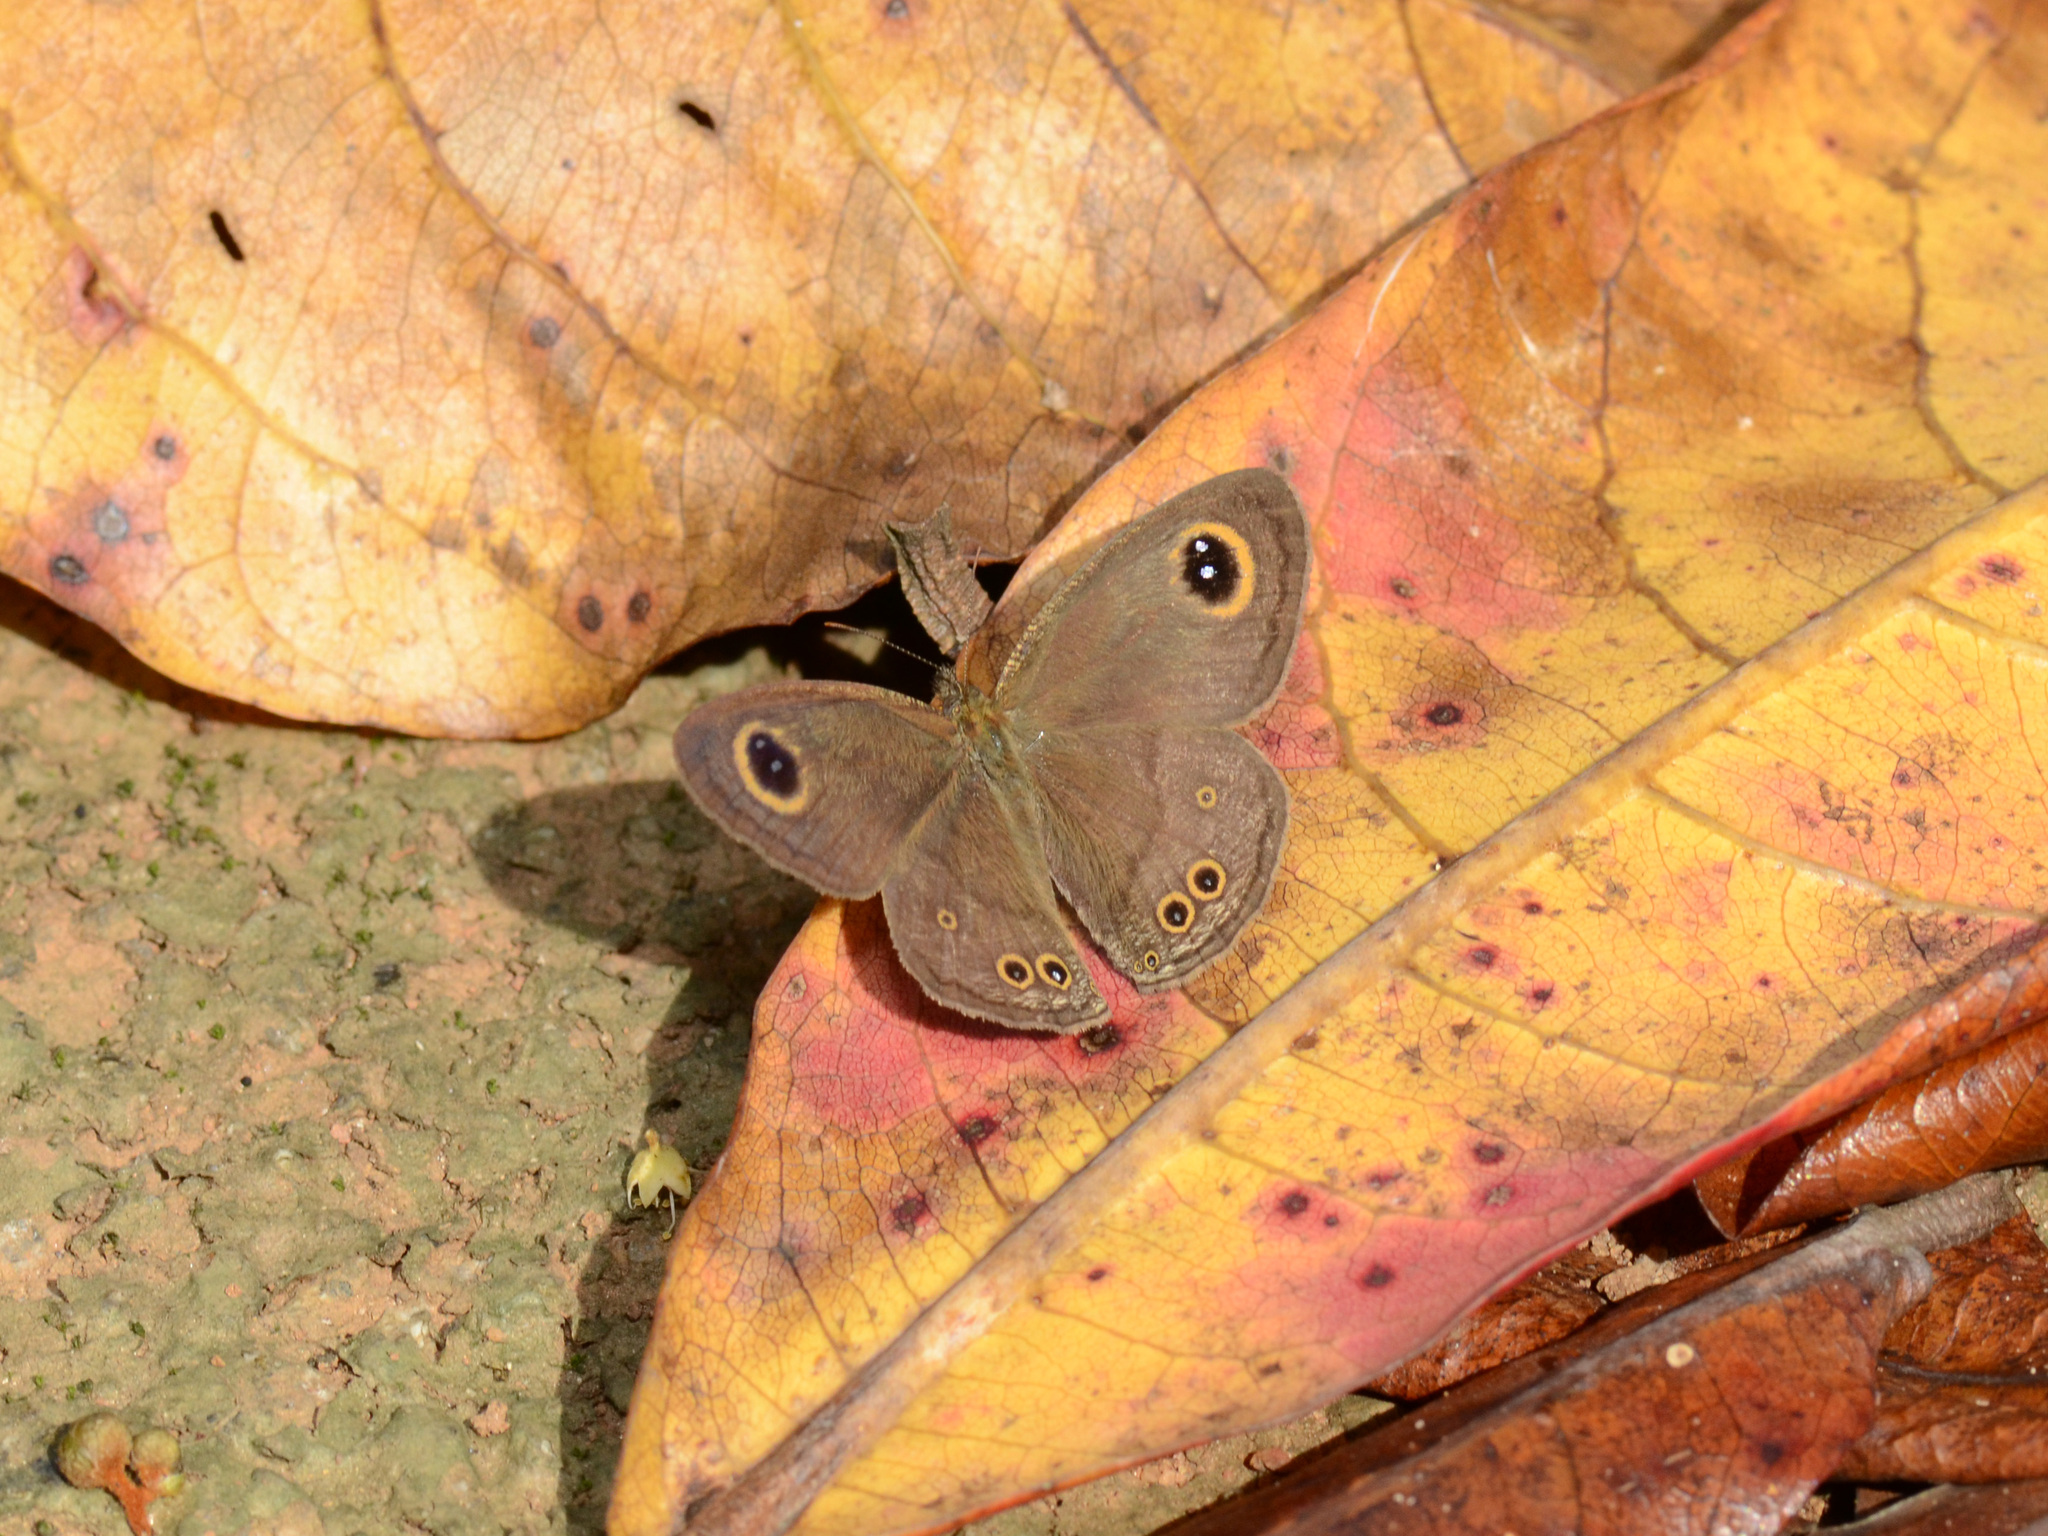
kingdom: Animalia
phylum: Arthropoda
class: Insecta
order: Lepidoptera
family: Nymphalidae
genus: Ypthima
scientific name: Ypthima baldus
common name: Common five-ring
